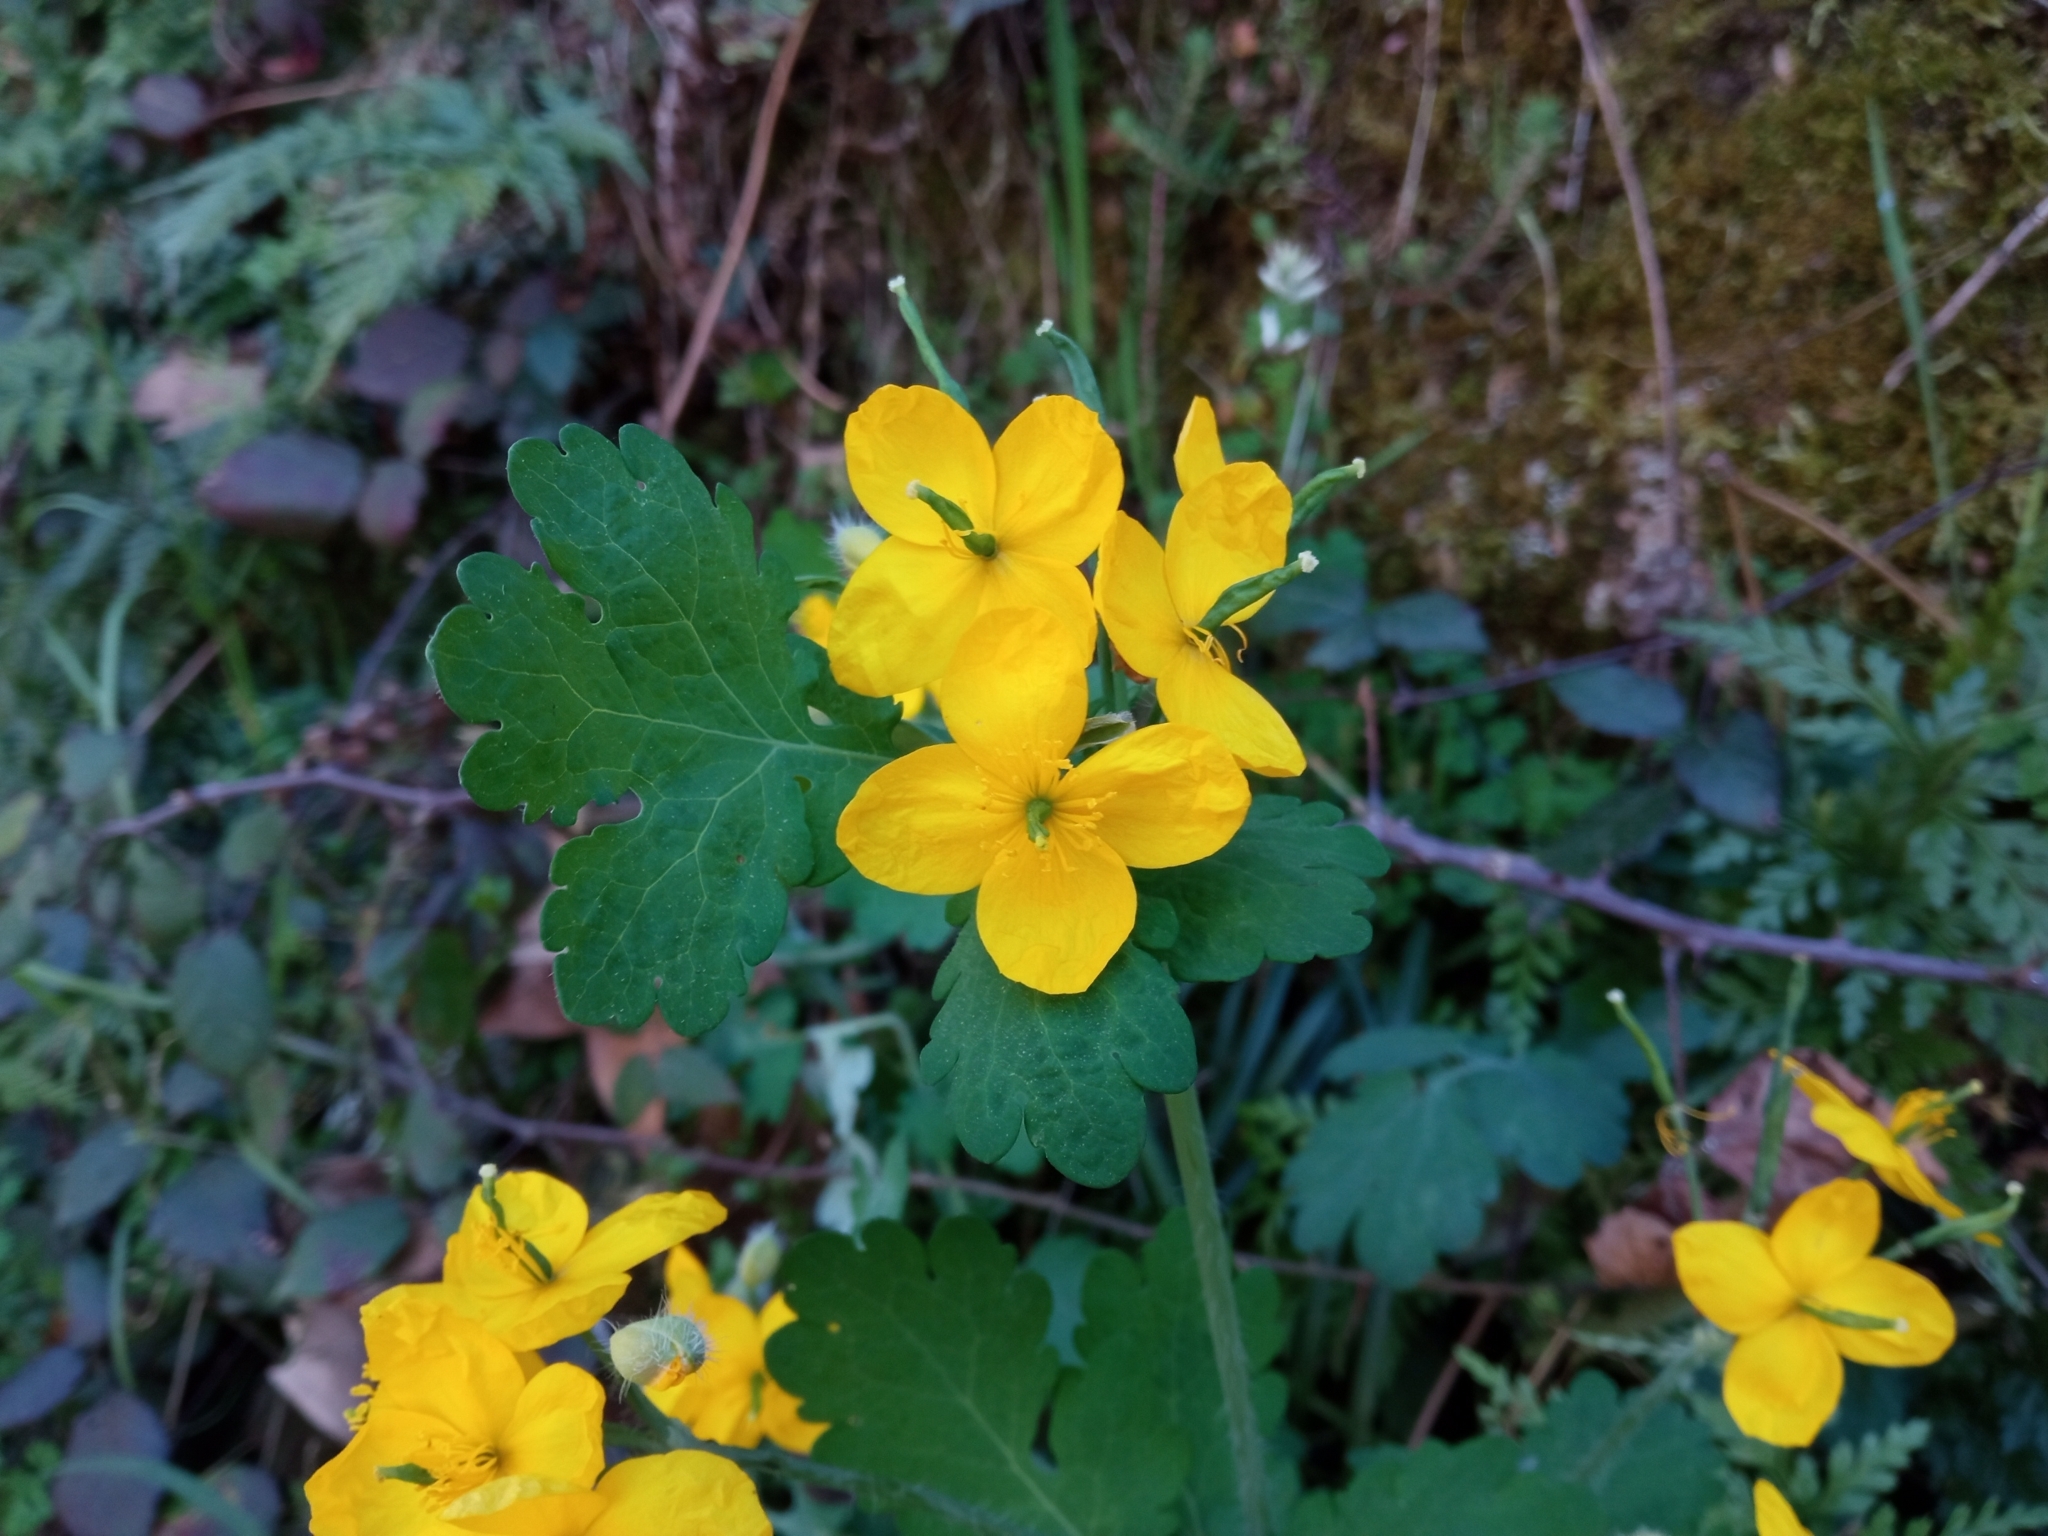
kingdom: Plantae
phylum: Tracheophyta
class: Magnoliopsida
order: Ranunculales
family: Papaveraceae
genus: Chelidonium
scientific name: Chelidonium majus
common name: Greater celandine
